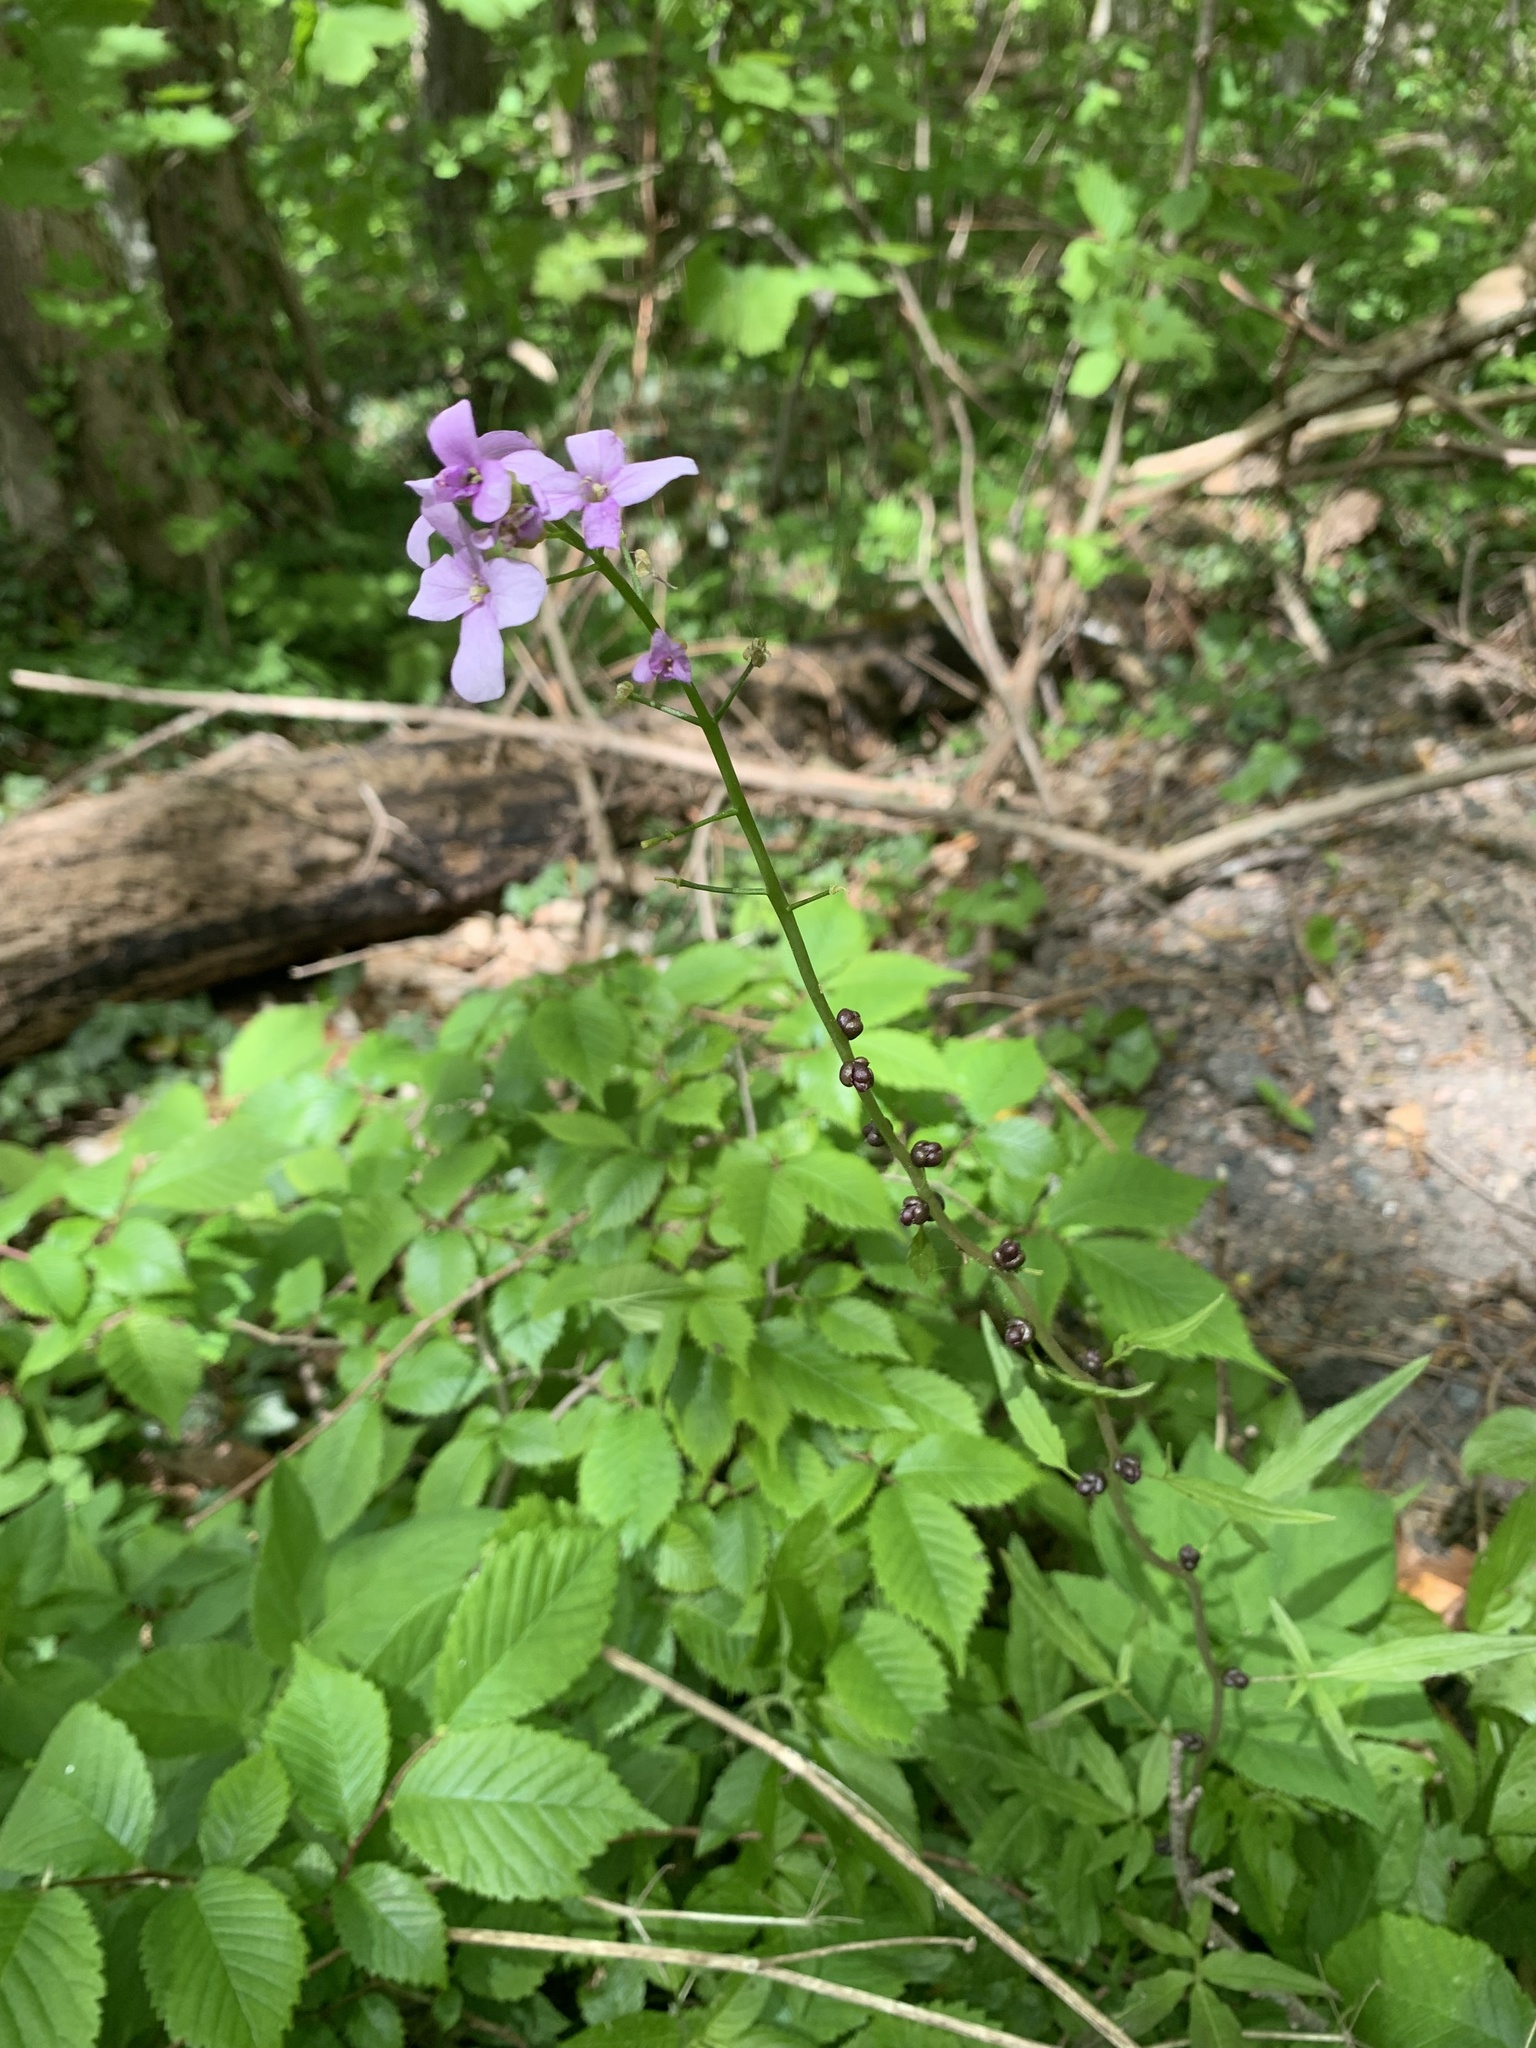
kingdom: Plantae
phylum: Tracheophyta
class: Magnoliopsida
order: Brassicales
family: Brassicaceae
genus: Cardamine
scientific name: Cardamine bulbifera
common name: Coralroot bittercress
